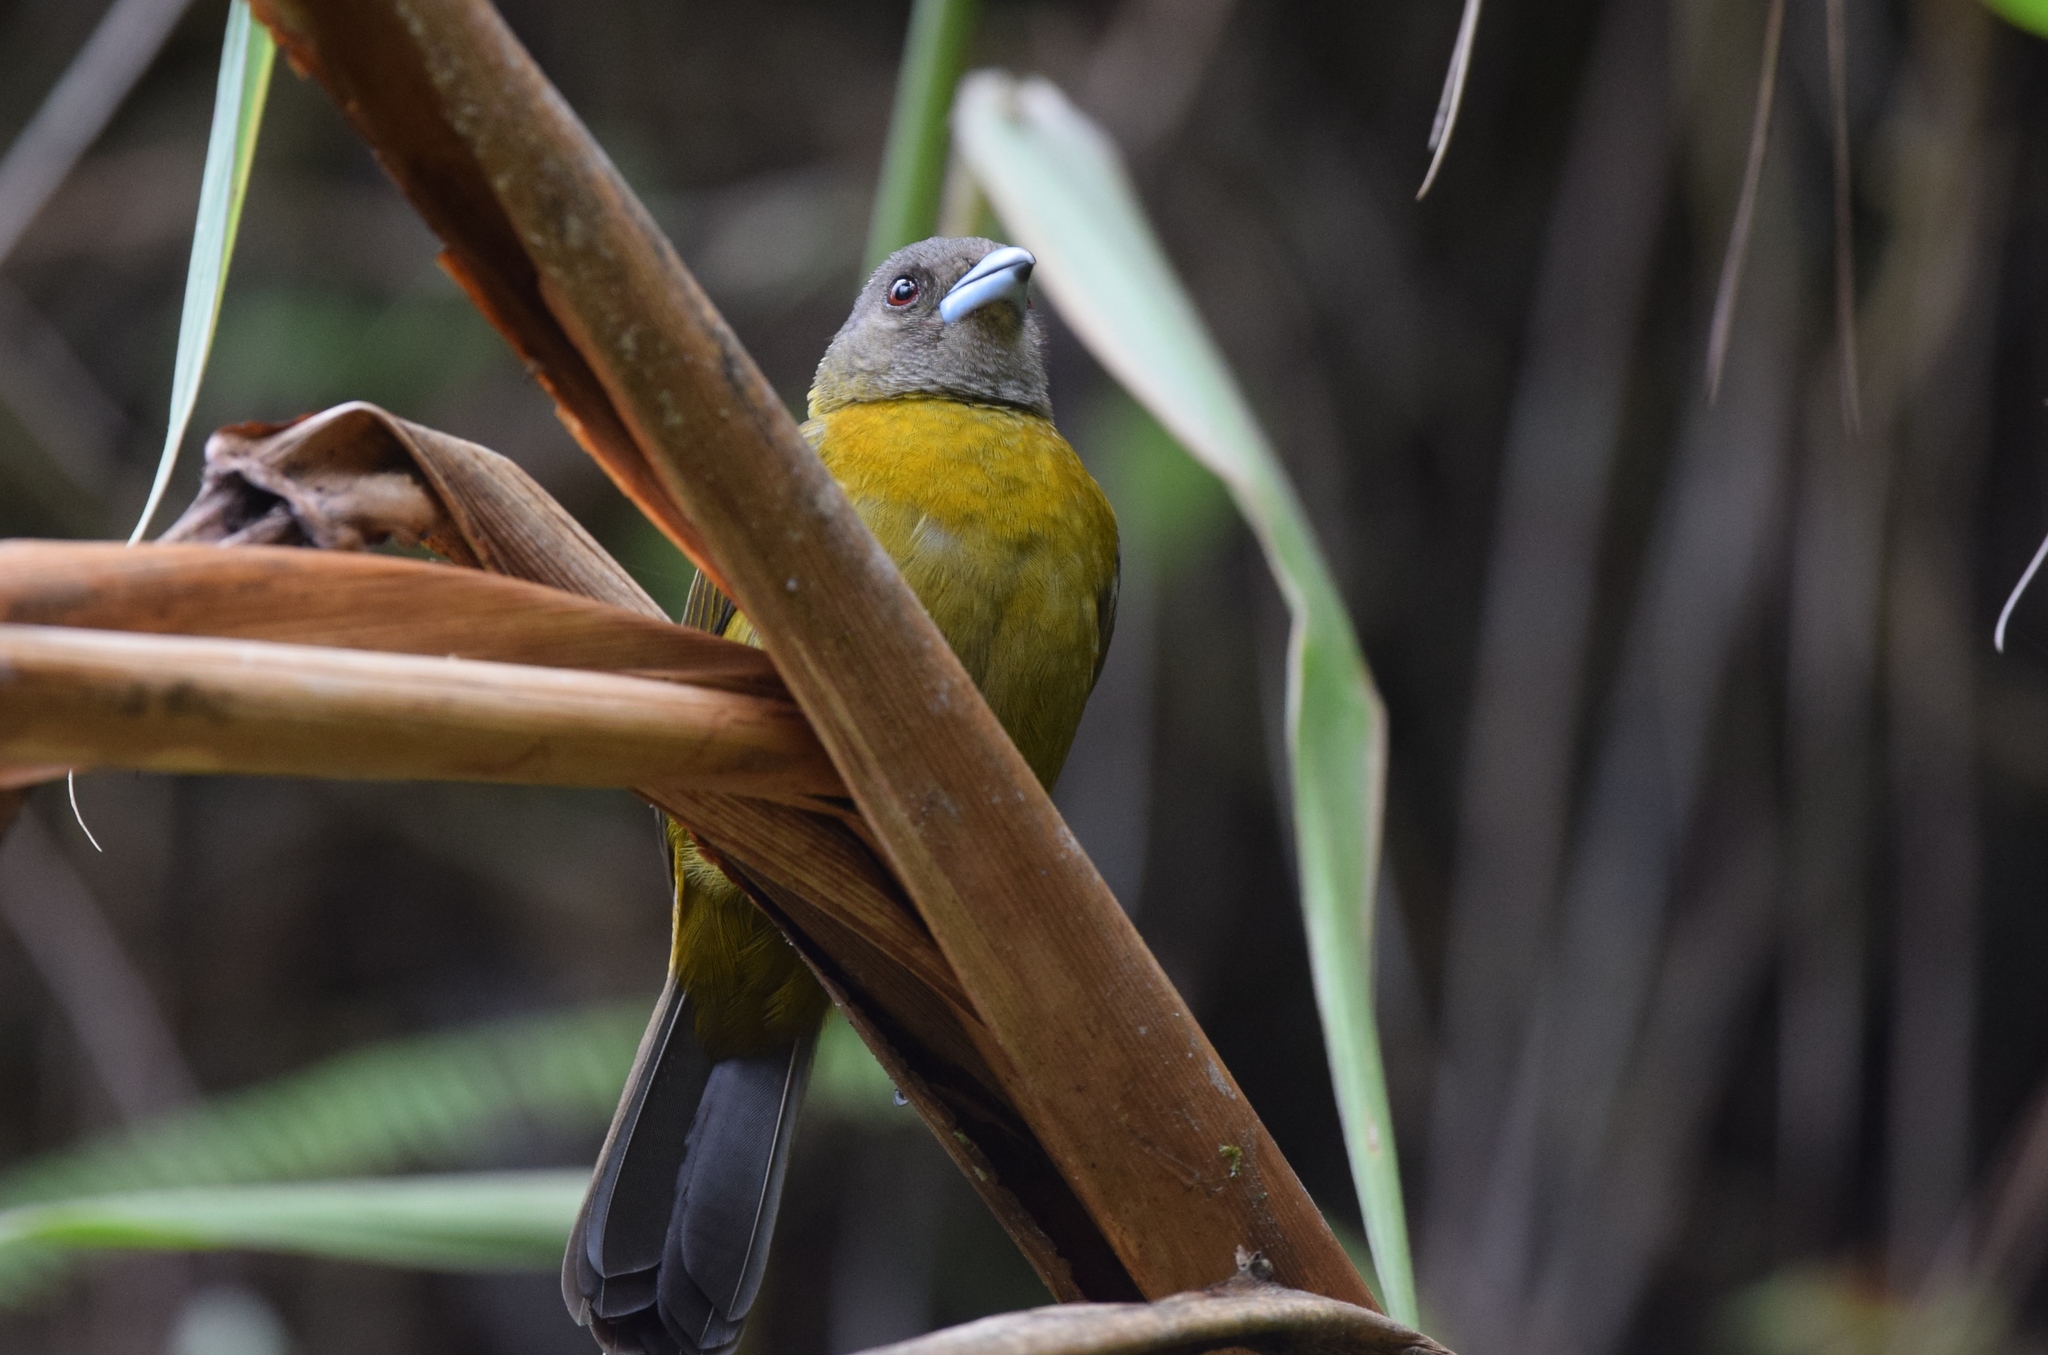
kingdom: Animalia
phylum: Chordata
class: Aves
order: Passeriformes
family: Thraupidae
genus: Ramphocelus
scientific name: Ramphocelus passerinii
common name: Passerini's tanager
